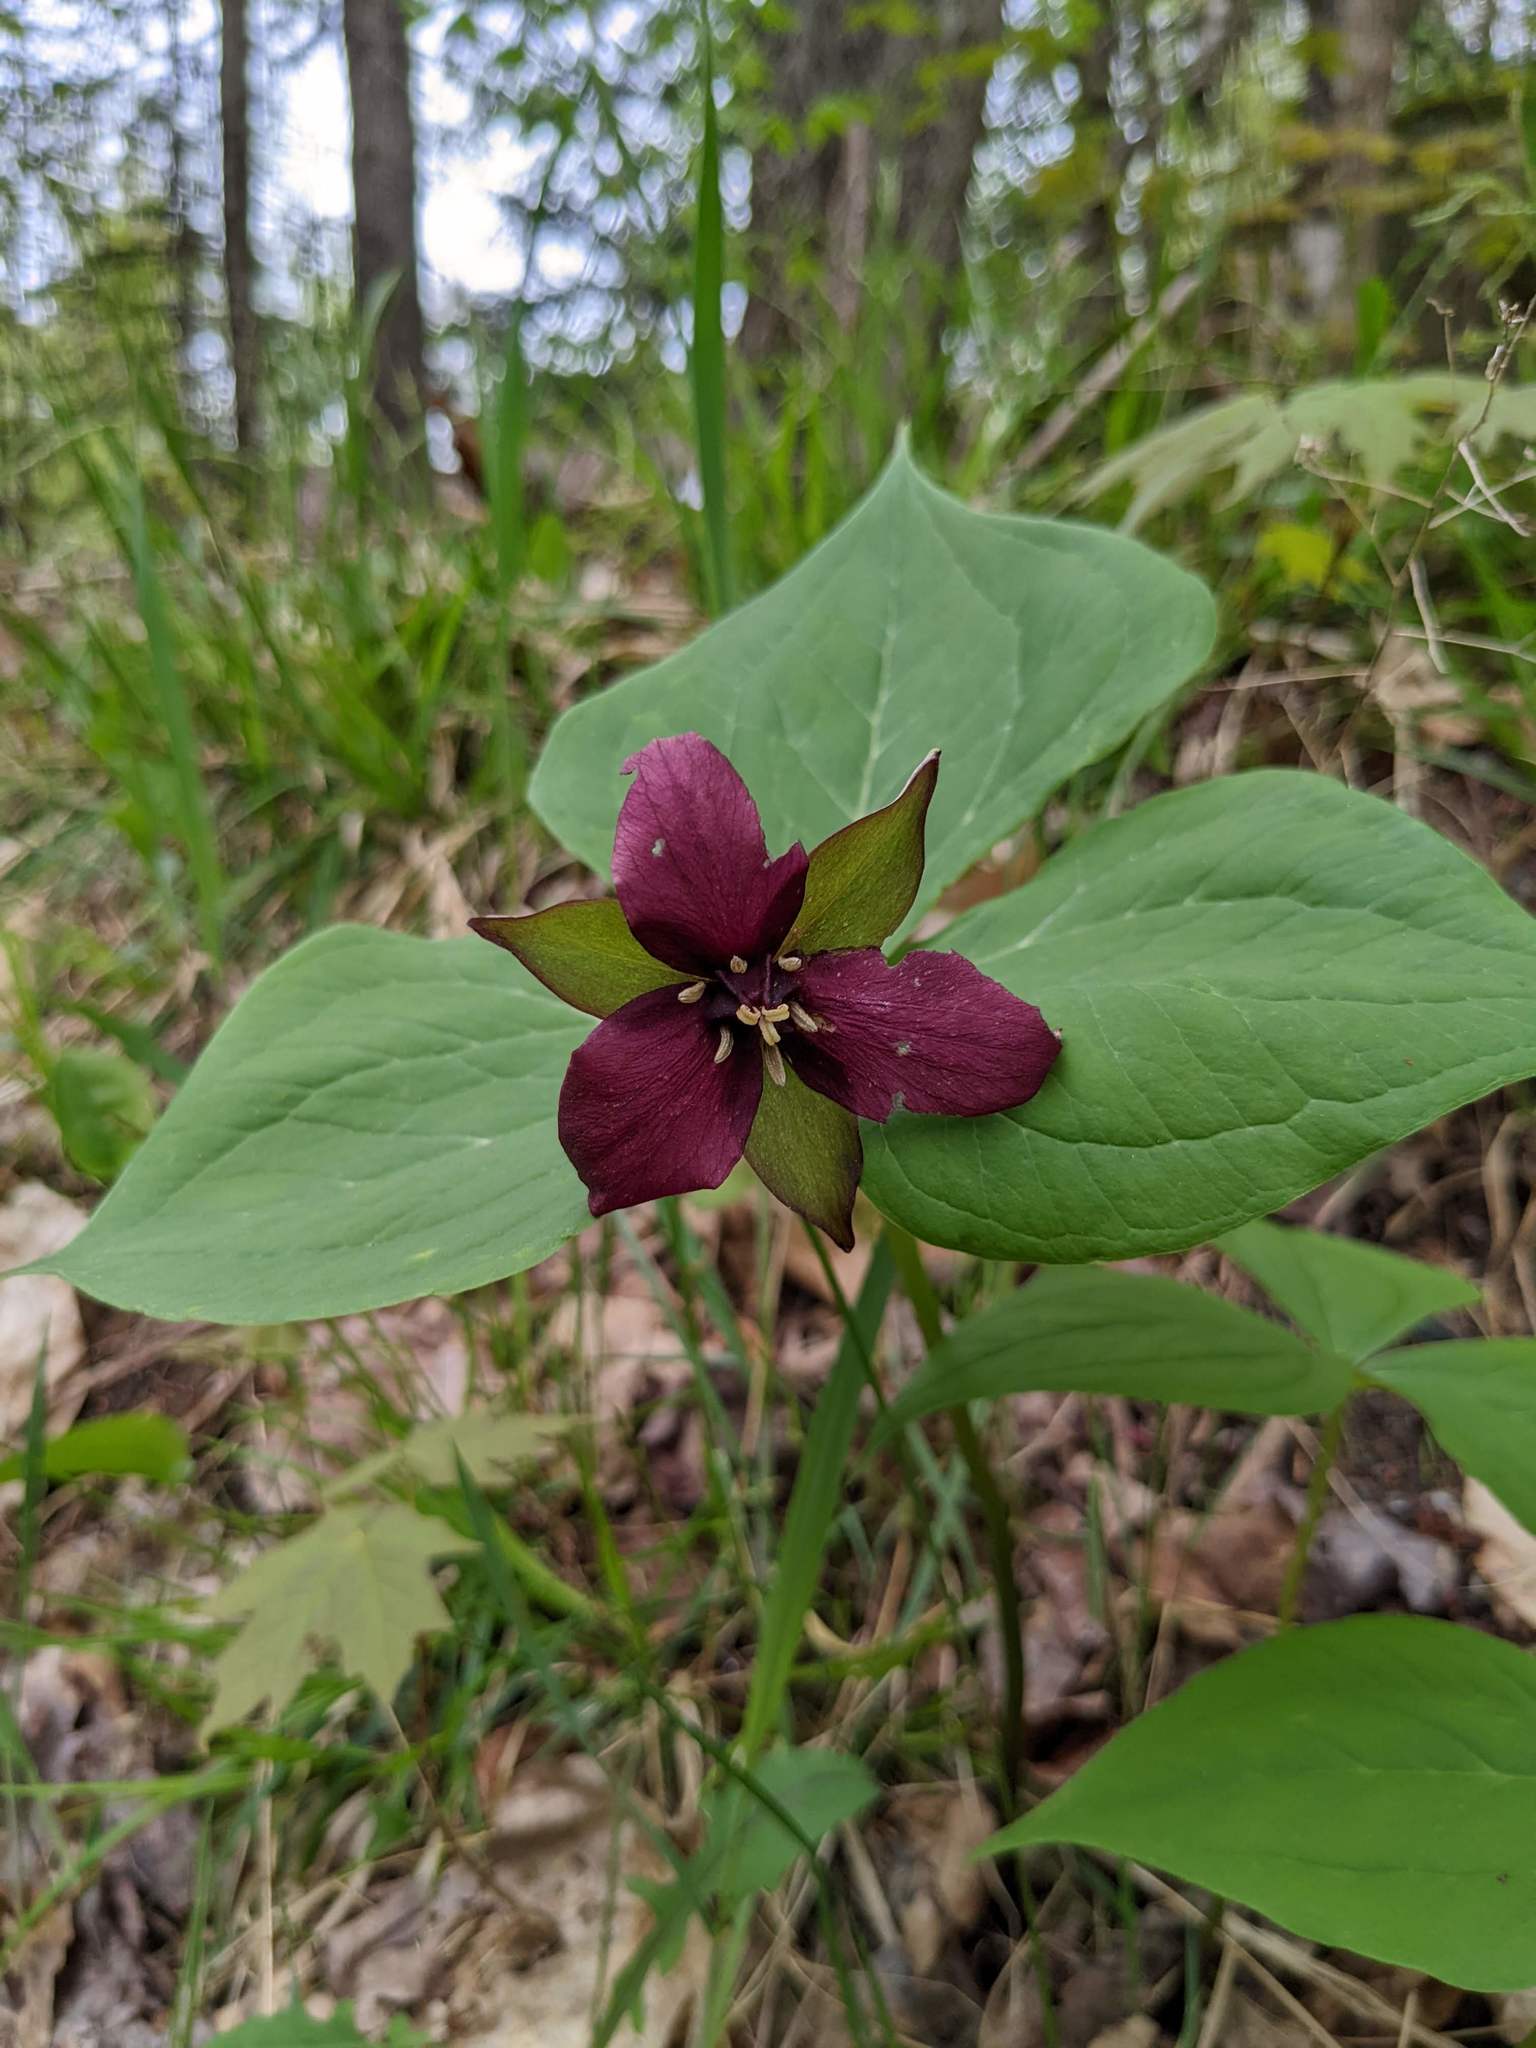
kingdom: Plantae
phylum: Tracheophyta
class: Liliopsida
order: Liliales
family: Melanthiaceae
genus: Trillium
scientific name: Trillium erectum
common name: Purple trillium
